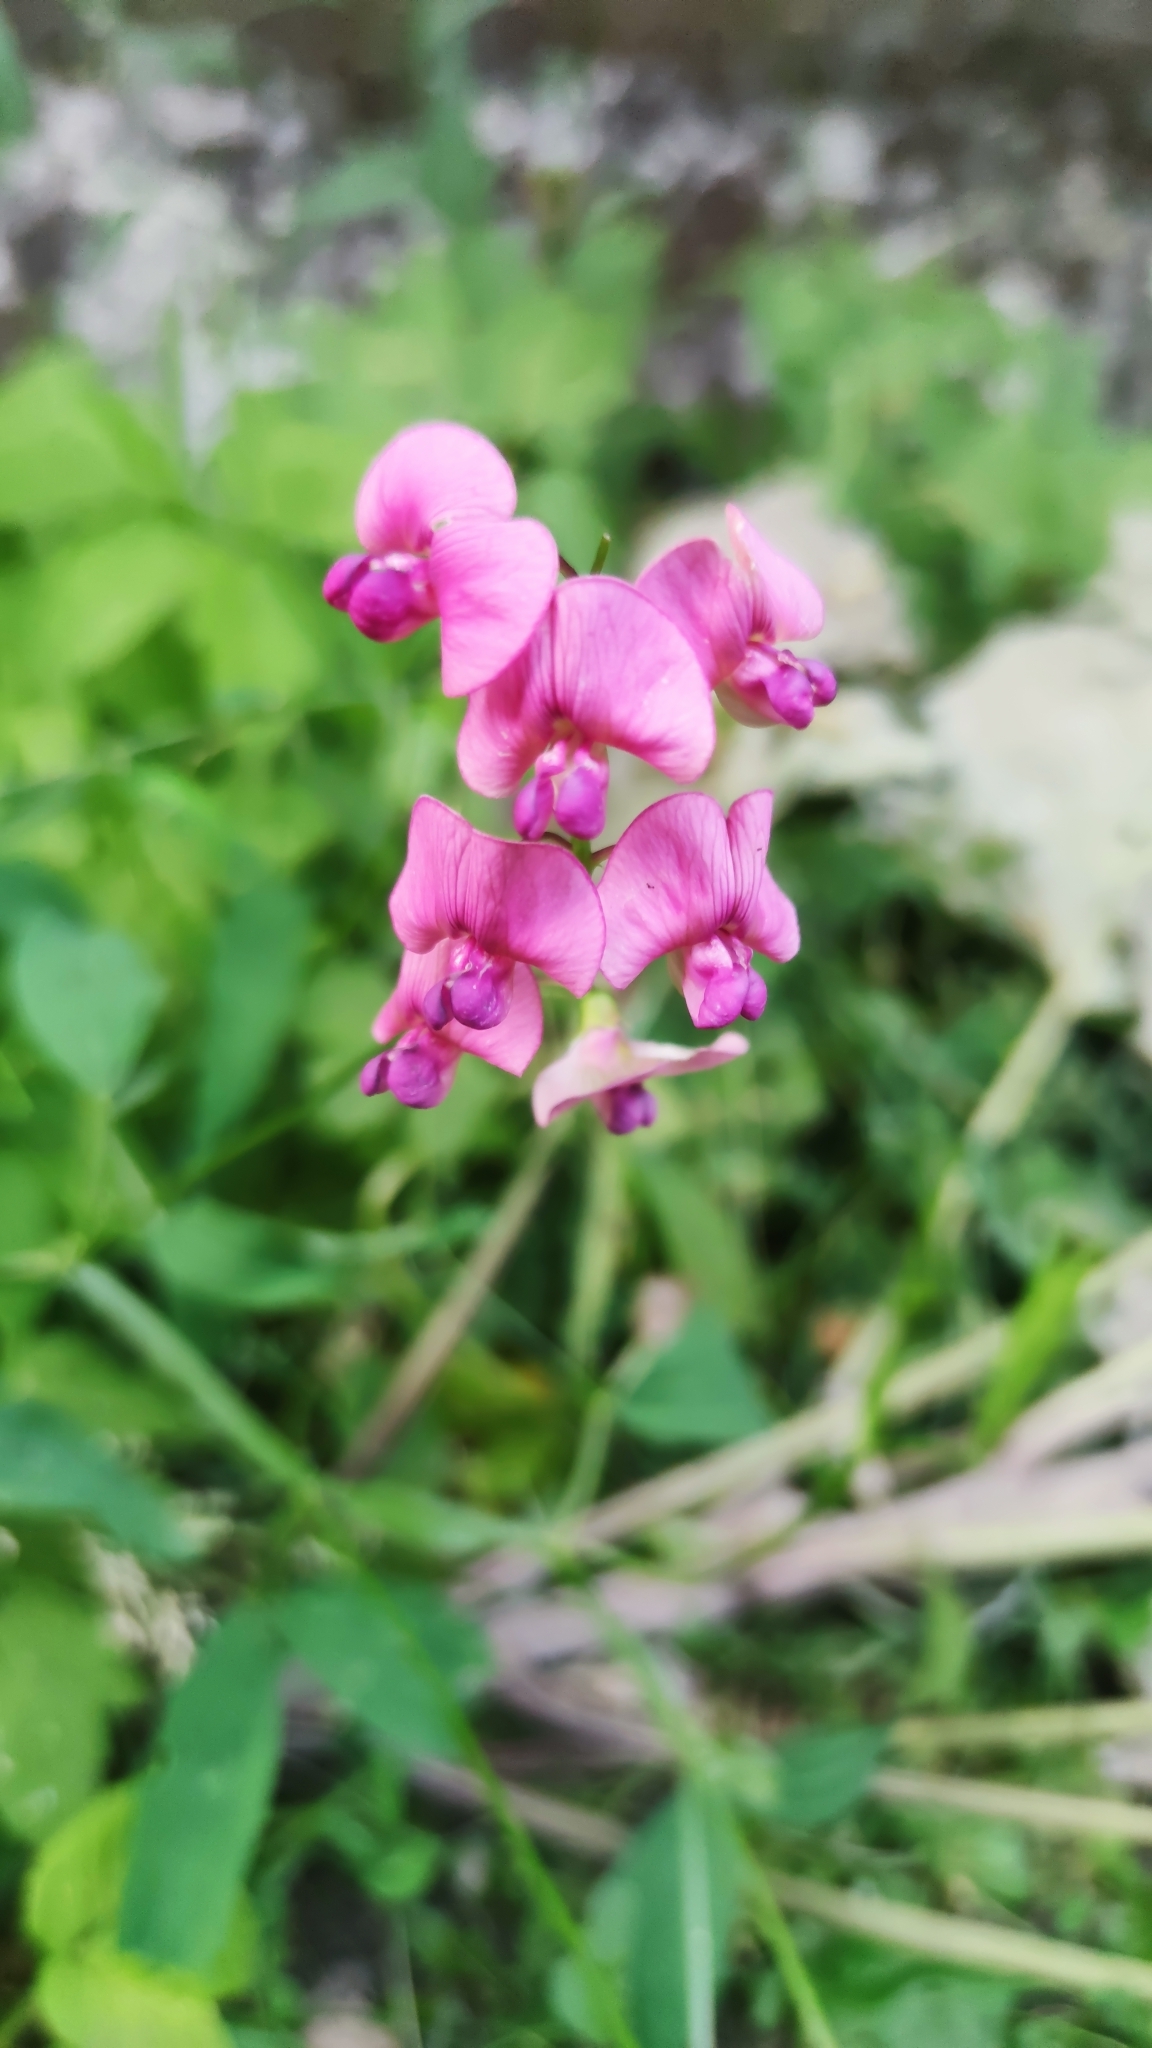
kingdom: Plantae
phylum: Tracheophyta
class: Magnoliopsida
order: Fabales
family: Fabaceae
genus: Lathyrus
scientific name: Lathyrus sylvestris
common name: Flat pea
